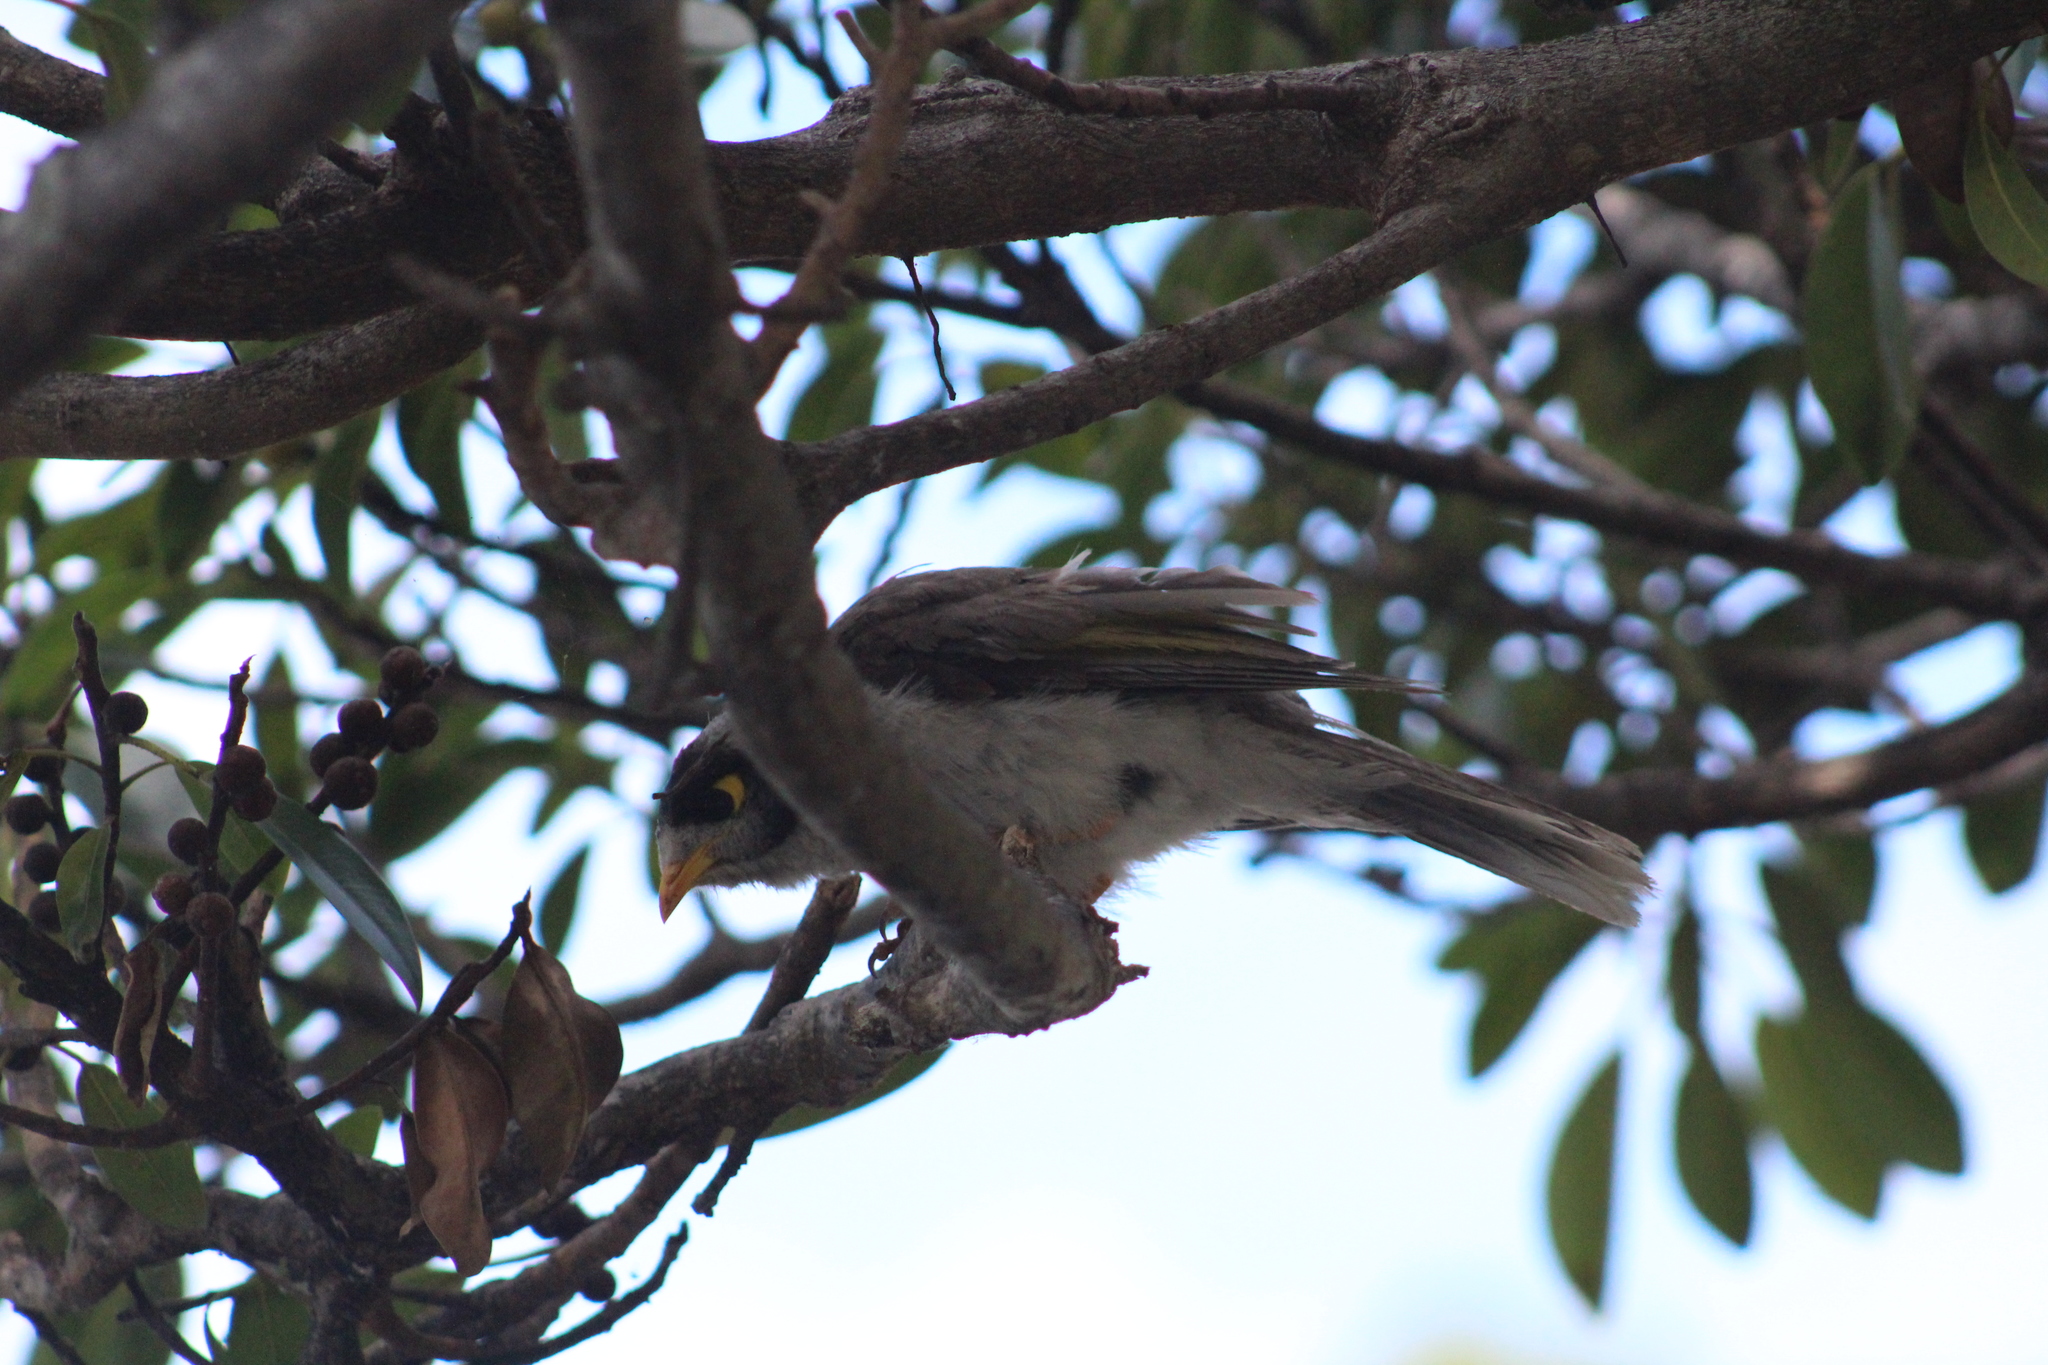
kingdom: Animalia
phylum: Chordata
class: Aves
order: Passeriformes
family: Meliphagidae
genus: Manorina
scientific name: Manorina melanocephala
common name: Noisy miner
